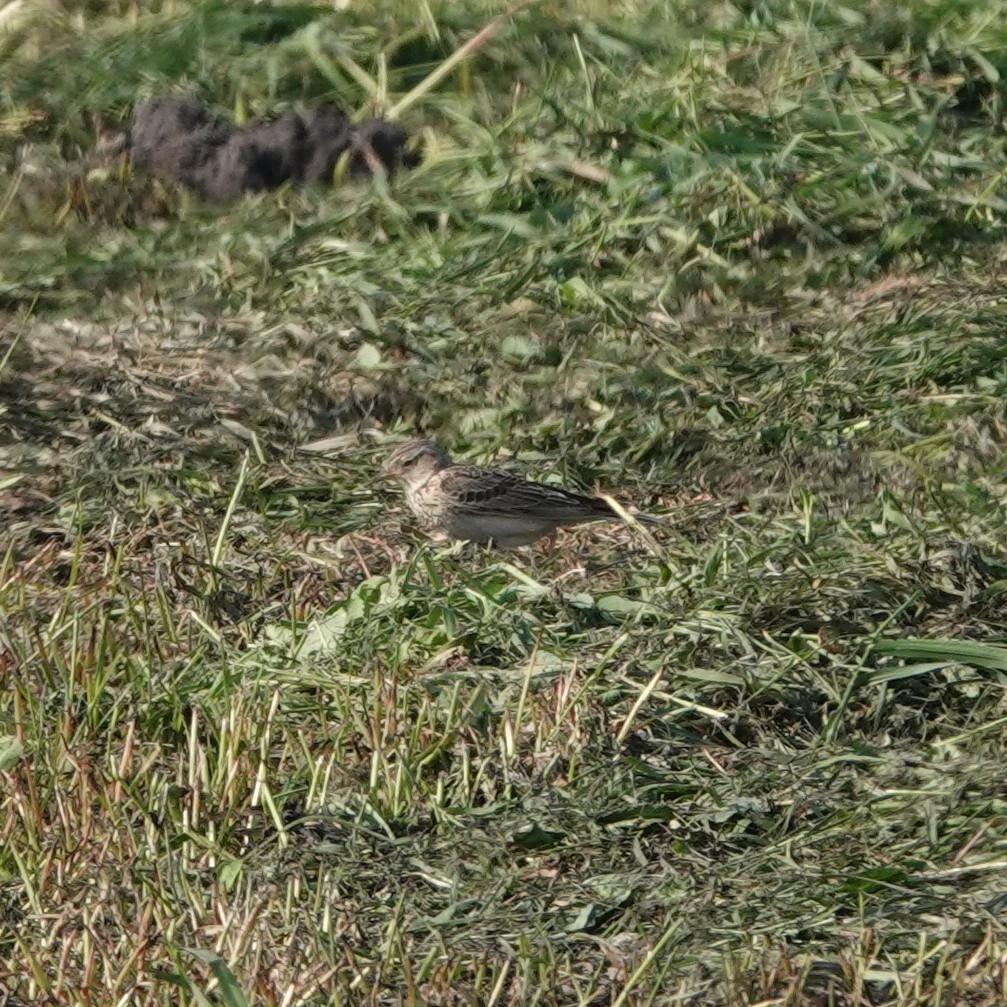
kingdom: Animalia
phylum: Chordata
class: Aves
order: Passeriformes
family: Alaudidae
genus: Alauda
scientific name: Alauda arvensis
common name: Eurasian skylark
